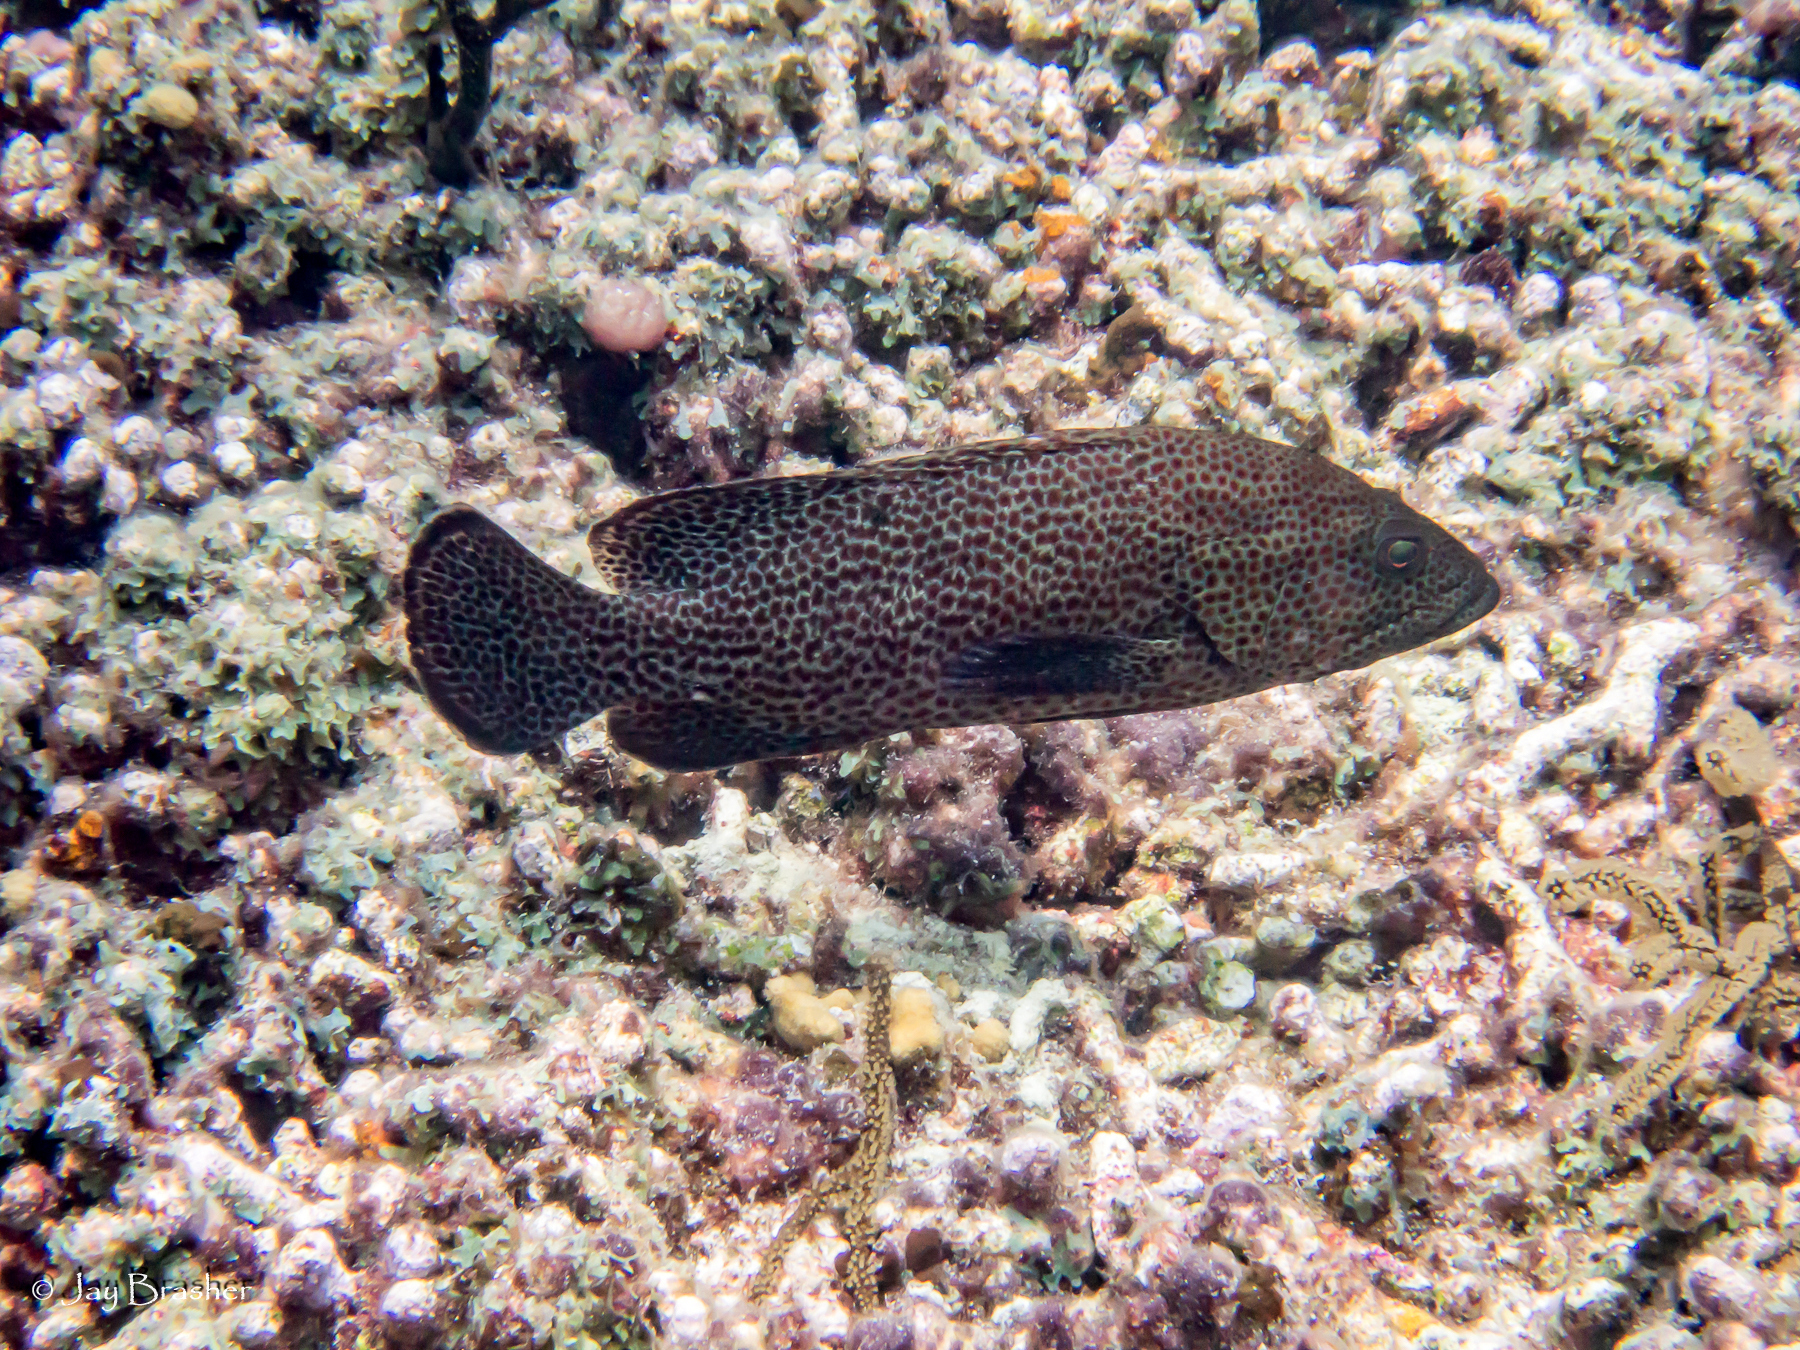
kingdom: Animalia
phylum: Chordata
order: Perciformes
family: Serranidae
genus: Cephalopholis
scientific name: Cephalopholis cruentata
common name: Graysby
